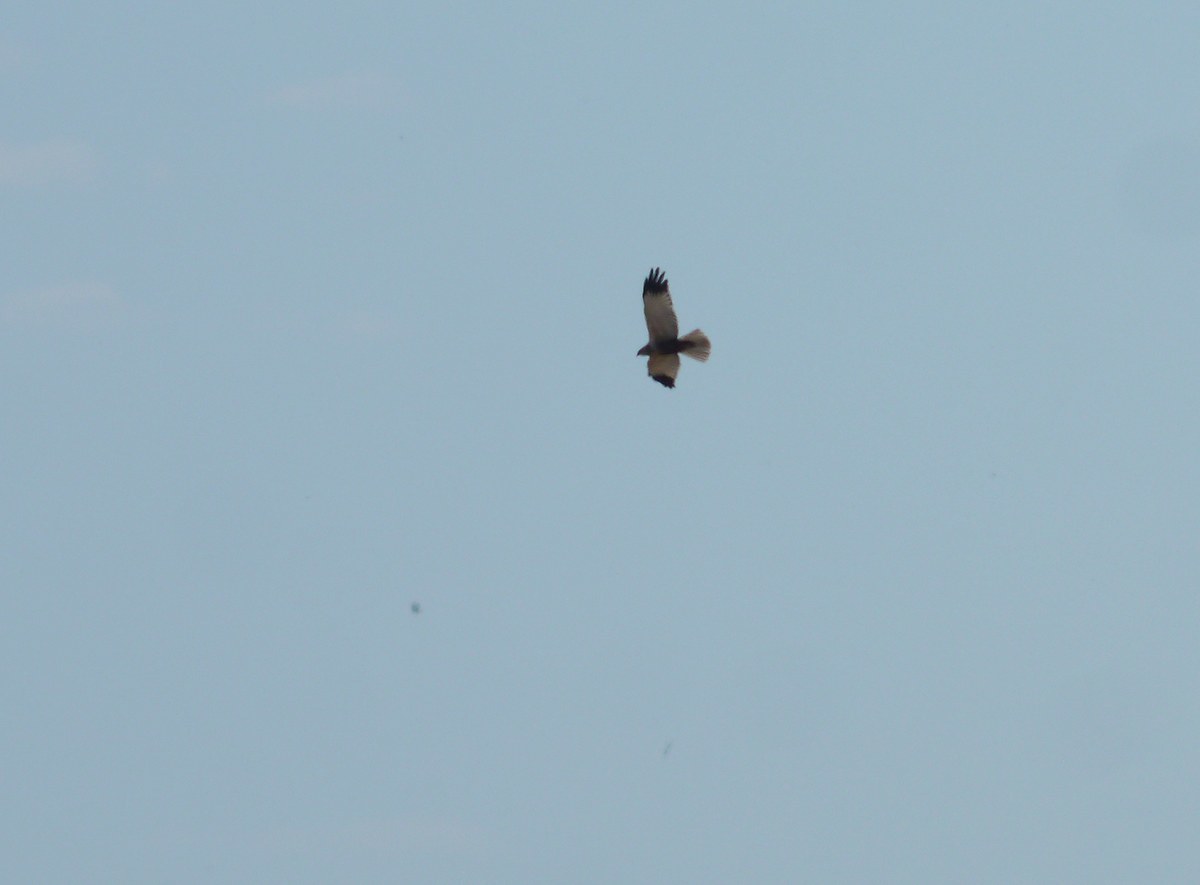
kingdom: Animalia
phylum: Chordata
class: Aves
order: Accipitriformes
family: Accipitridae
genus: Circus
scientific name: Circus aeruginosus
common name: Western marsh harrier
